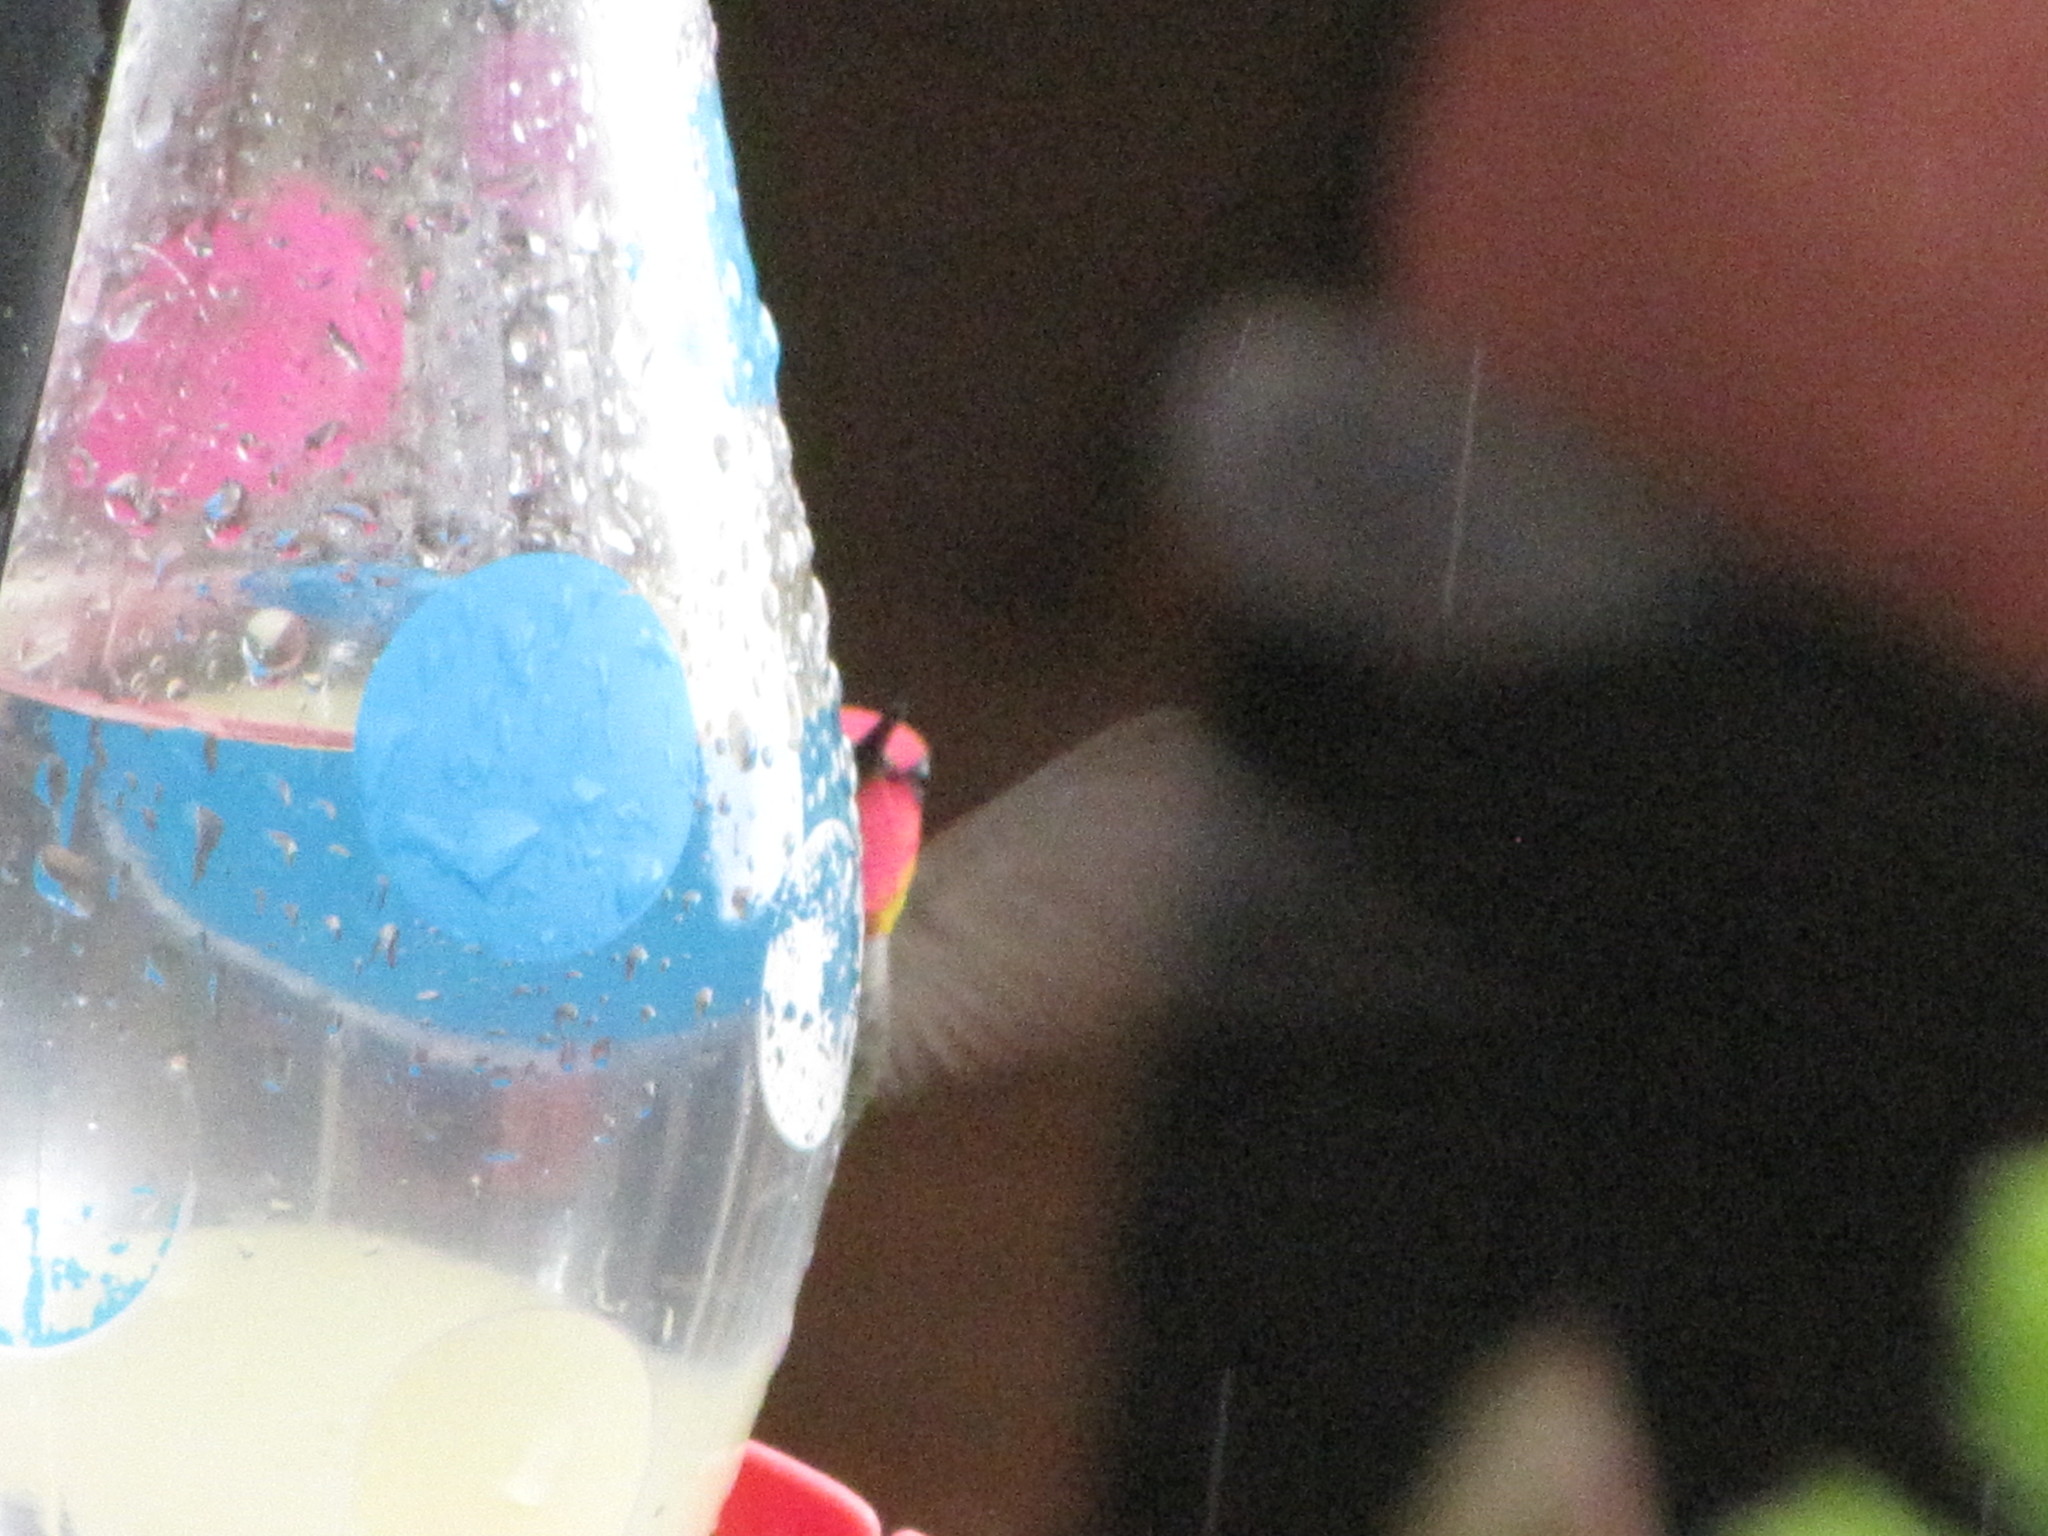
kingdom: Animalia
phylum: Chordata
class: Aves
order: Apodiformes
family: Trochilidae
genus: Calypte
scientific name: Calypte anna
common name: Anna's hummingbird
